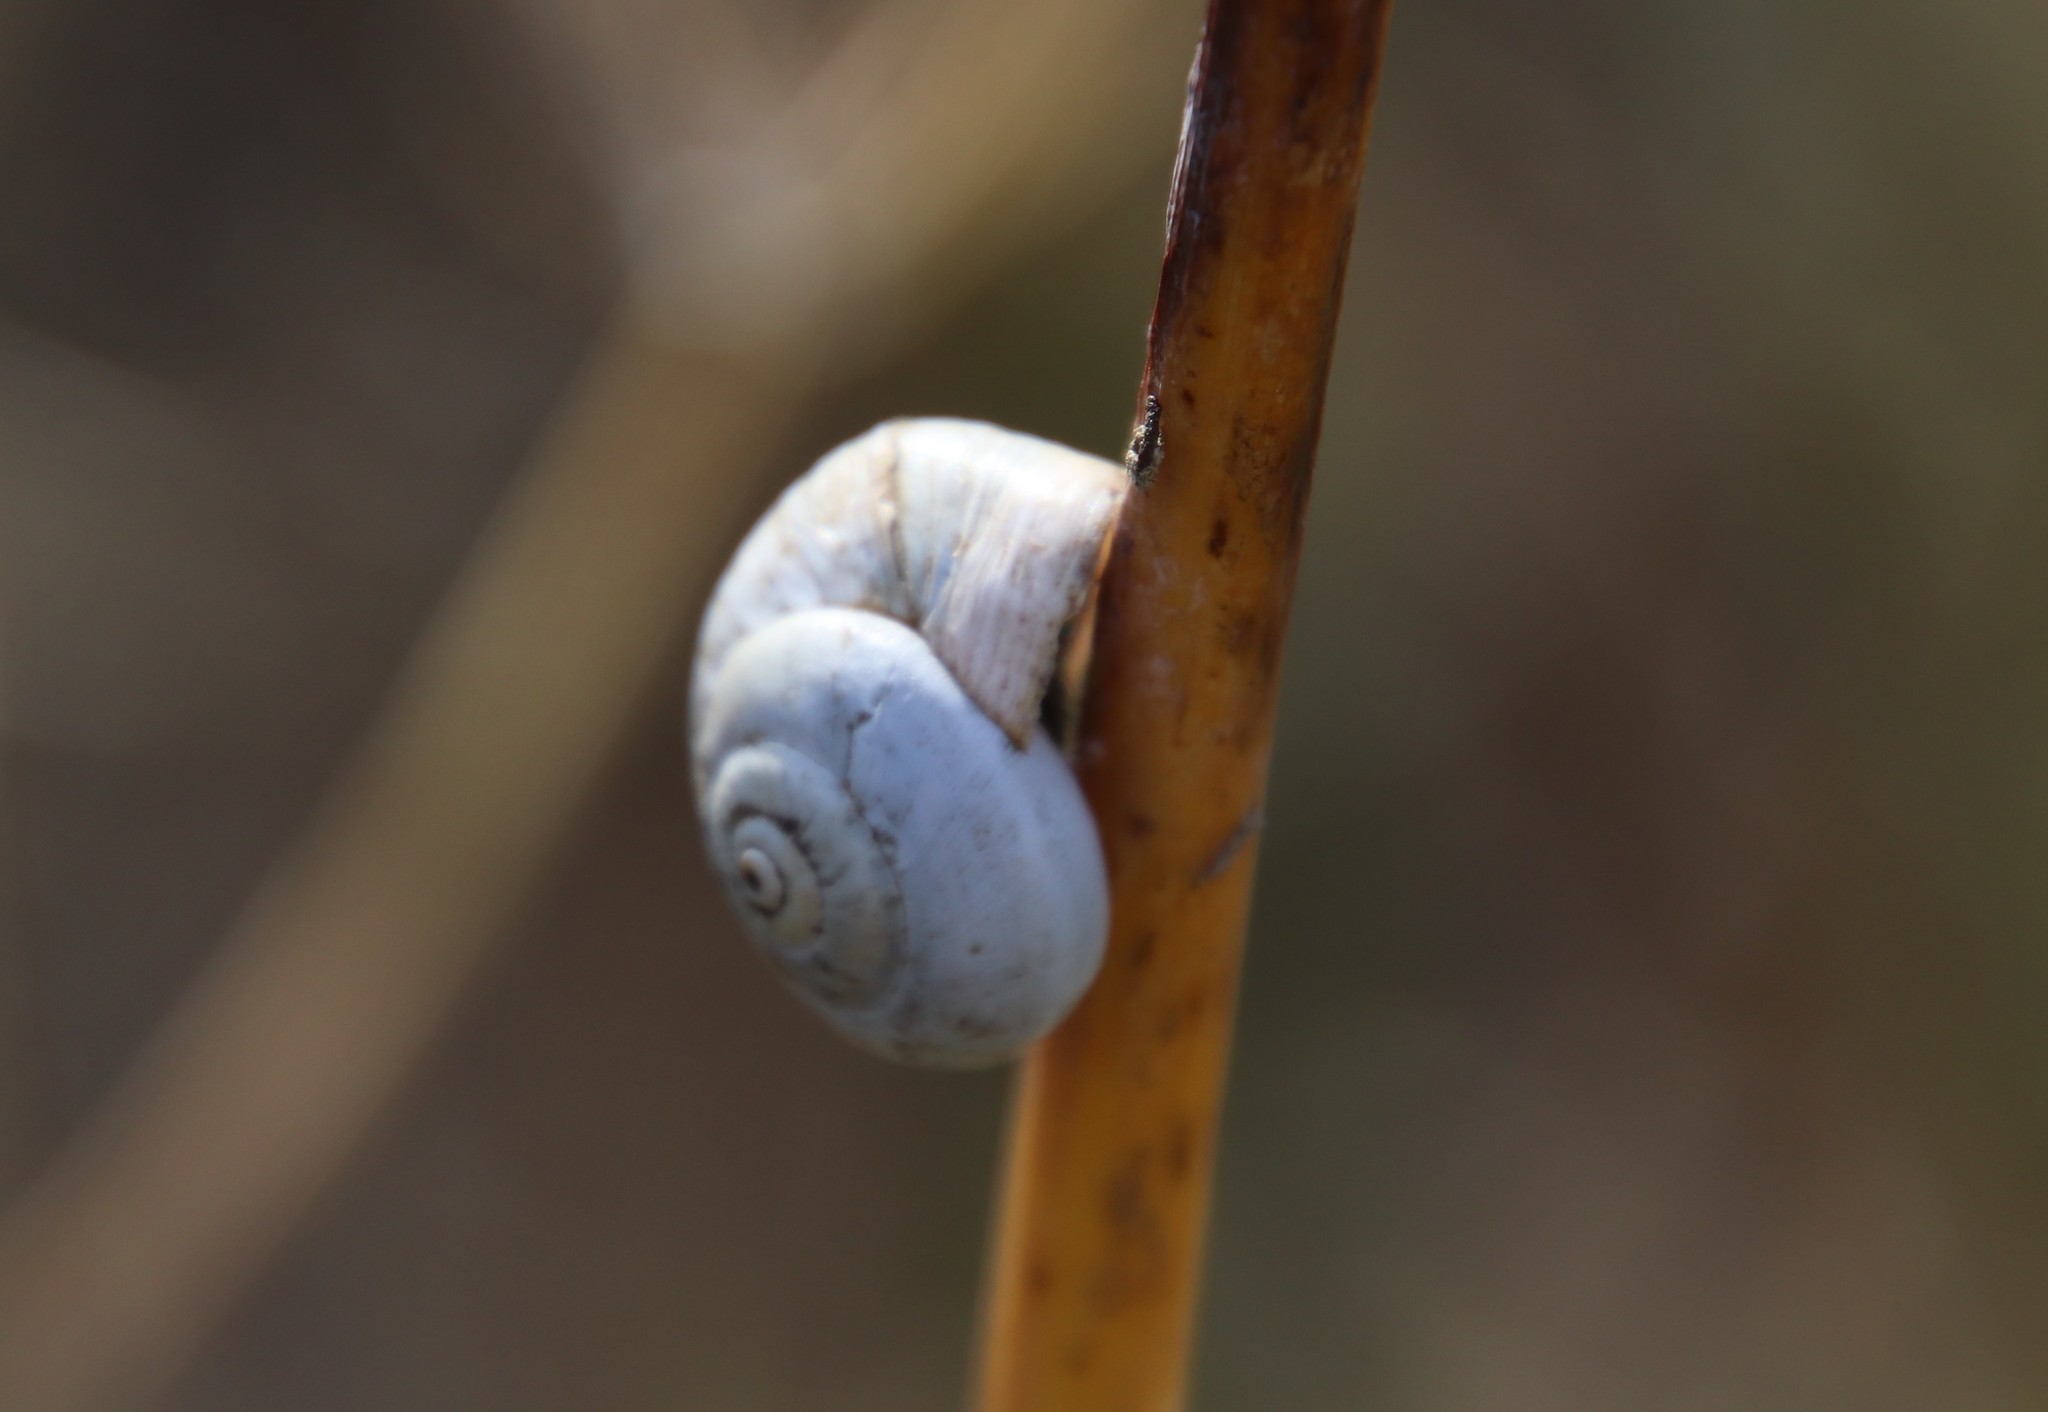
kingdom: Animalia
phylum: Mollusca
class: Gastropoda
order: Stylommatophora
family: Helicidae
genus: Theba
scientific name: Theba pisana
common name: White snail
